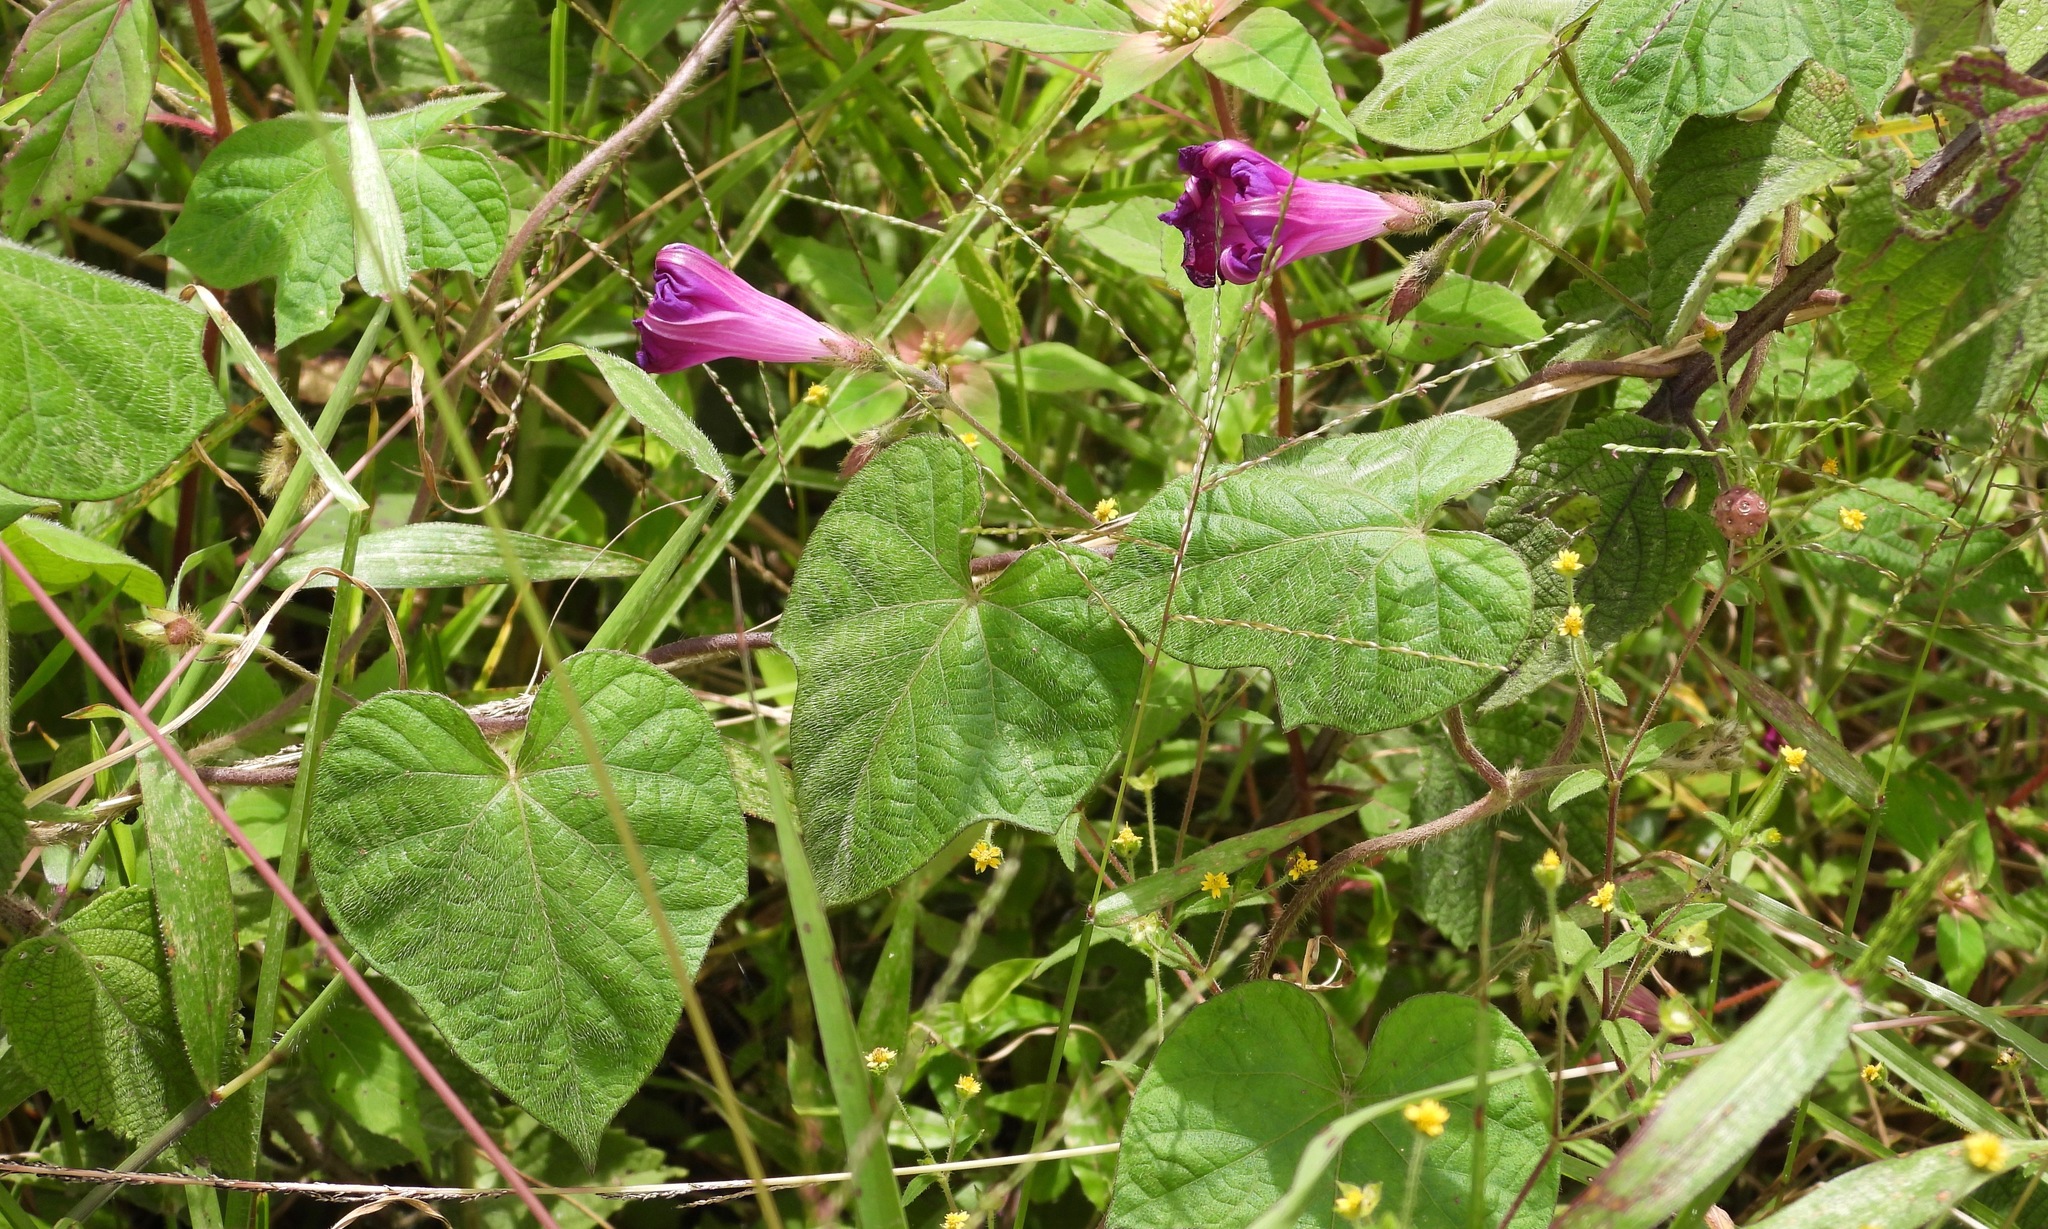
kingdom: Plantae
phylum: Tracheophyta
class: Magnoliopsida
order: Solanales
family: Convolvulaceae
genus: Ipomoea
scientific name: Ipomoea purpurea
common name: Common morning-glory
